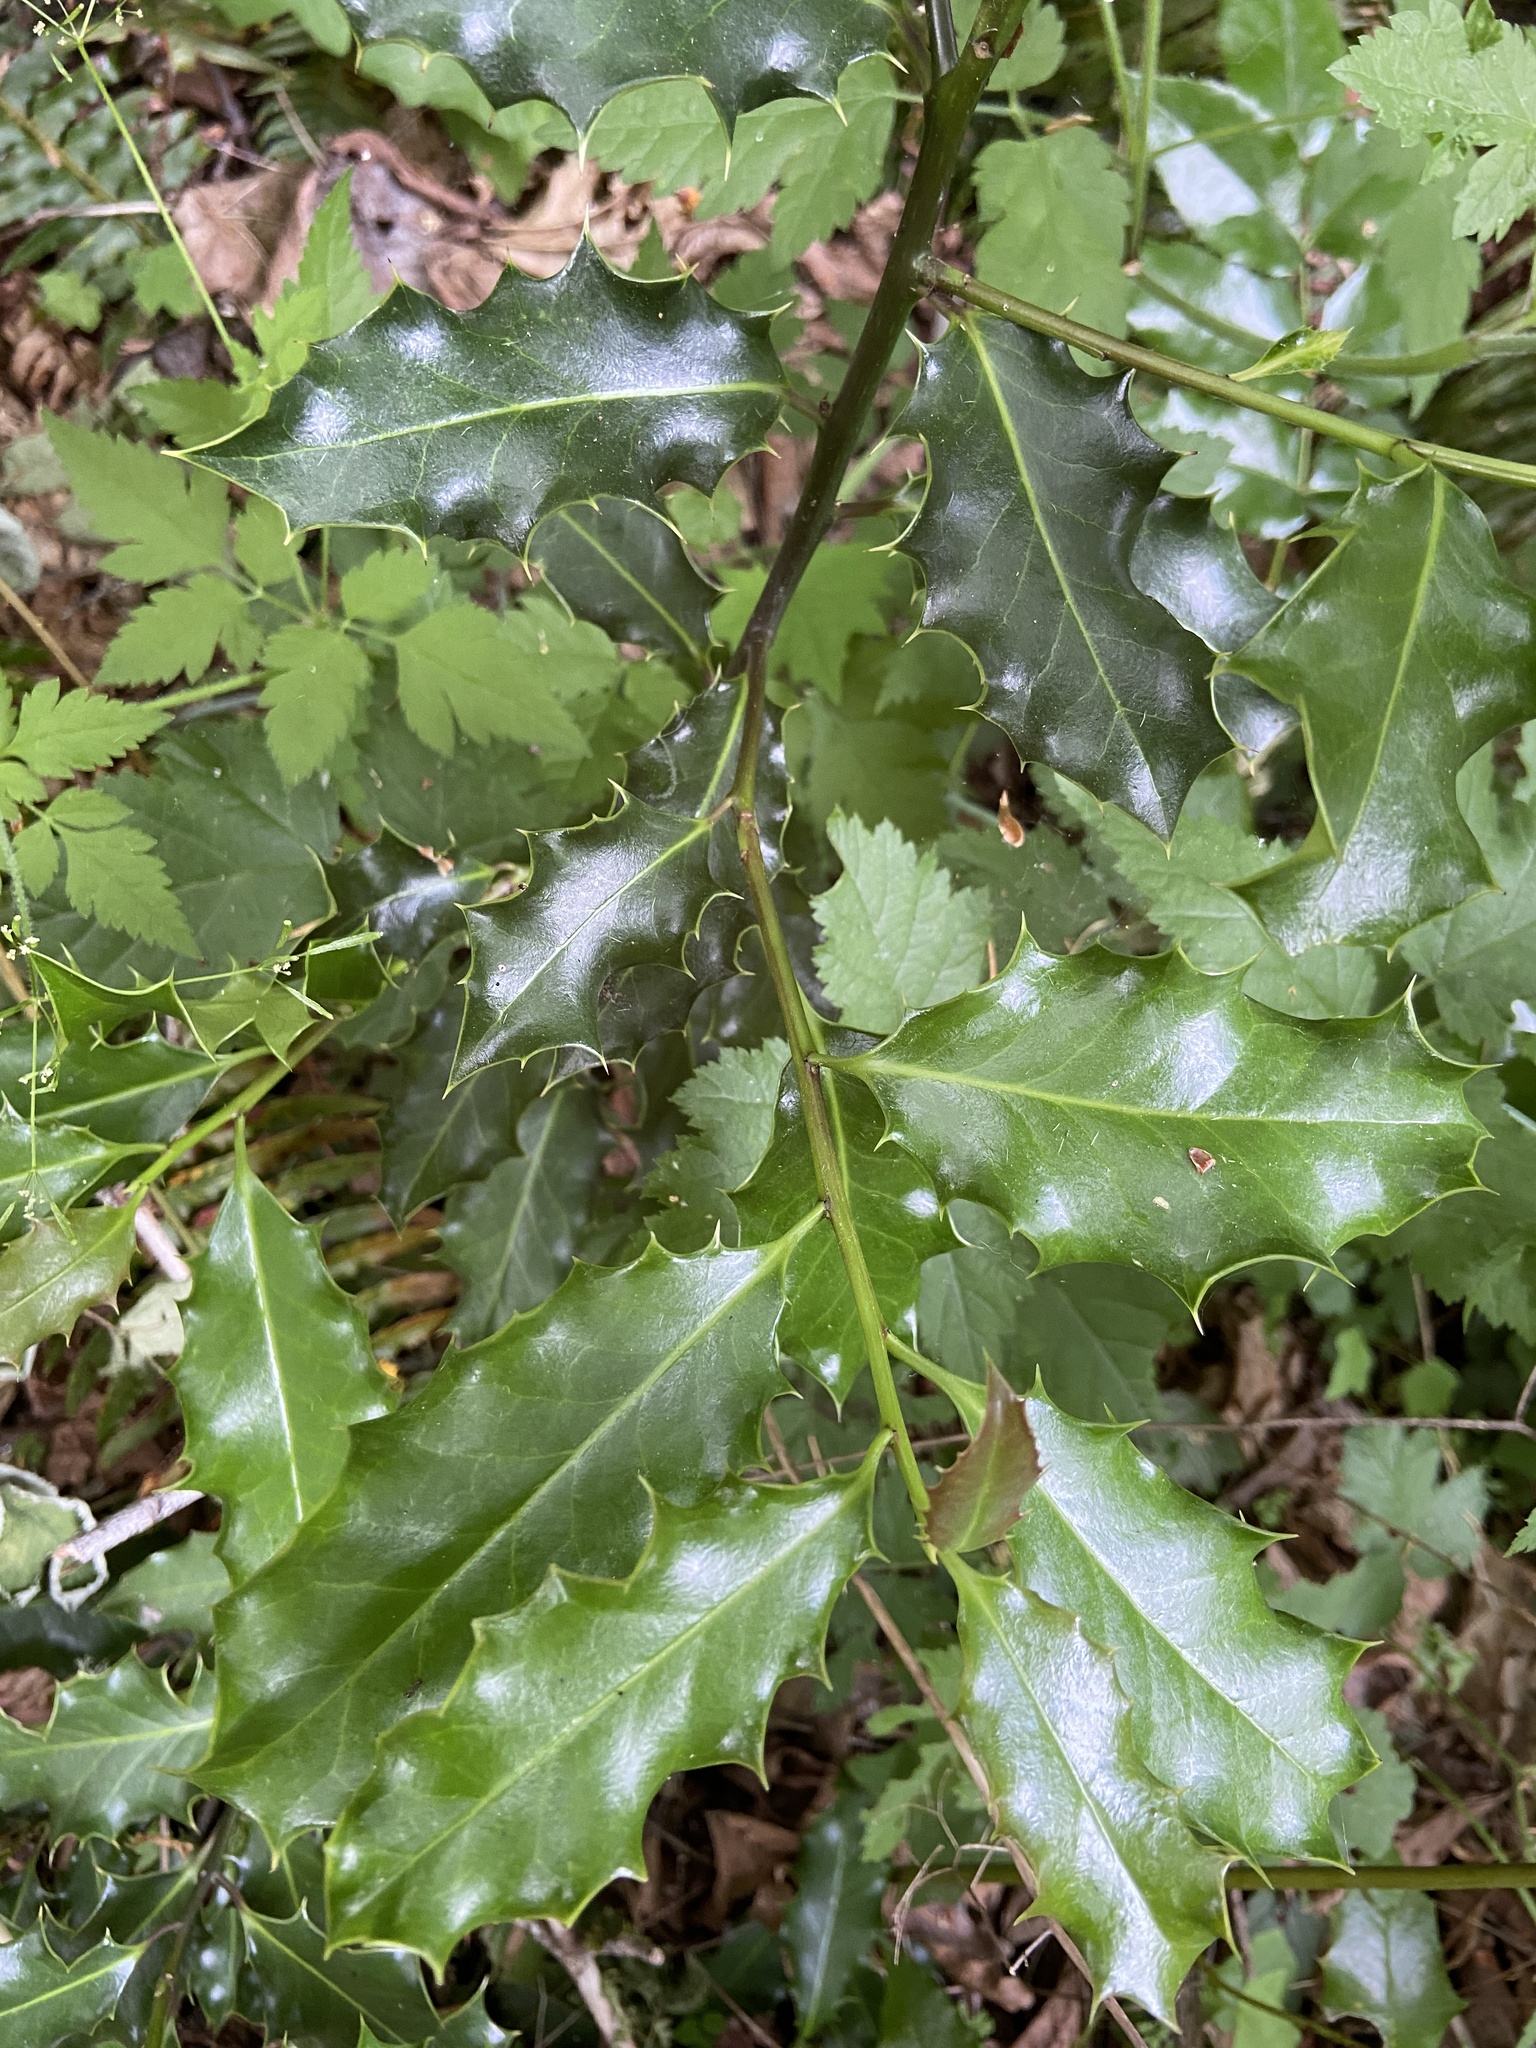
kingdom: Plantae
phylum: Tracheophyta
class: Magnoliopsida
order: Aquifoliales
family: Aquifoliaceae
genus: Ilex
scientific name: Ilex aquifolium
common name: English holly
